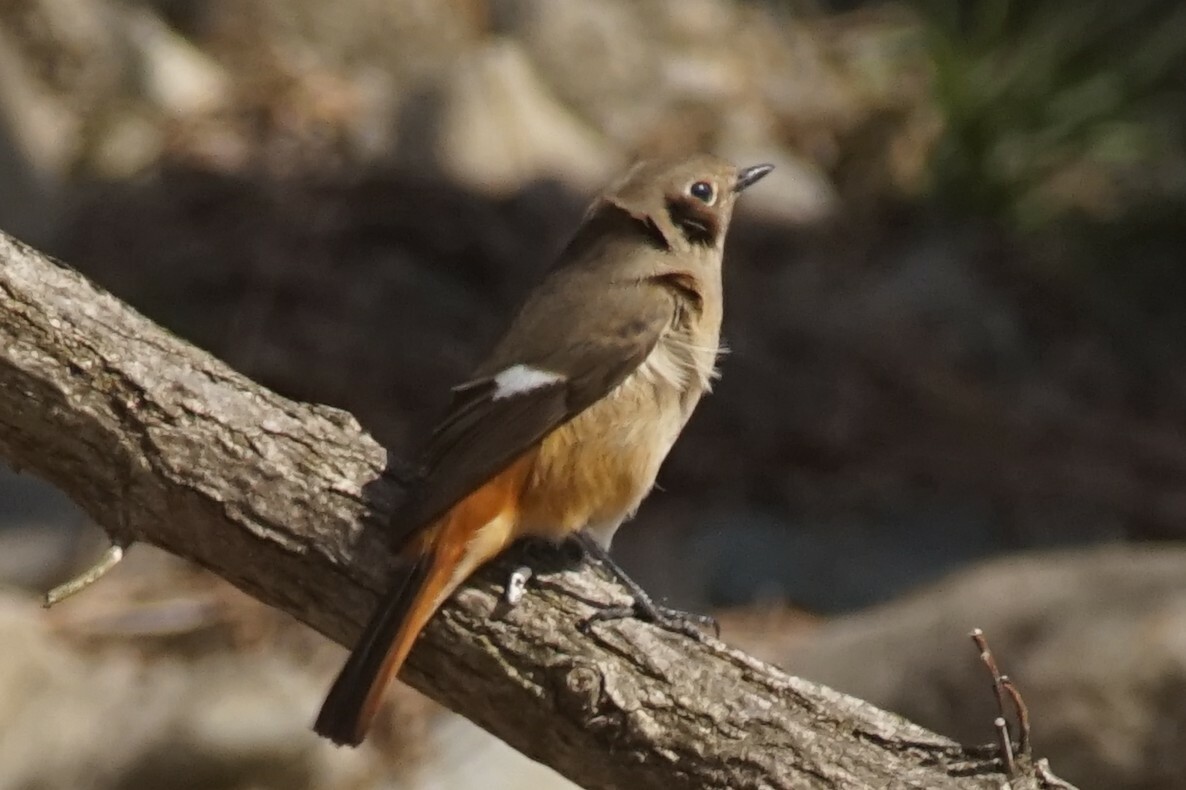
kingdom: Animalia
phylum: Chordata
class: Aves
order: Passeriformes
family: Muscicapidae
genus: Phoenicurus
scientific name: Phoenicurus auroreus
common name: Daurian redstart
